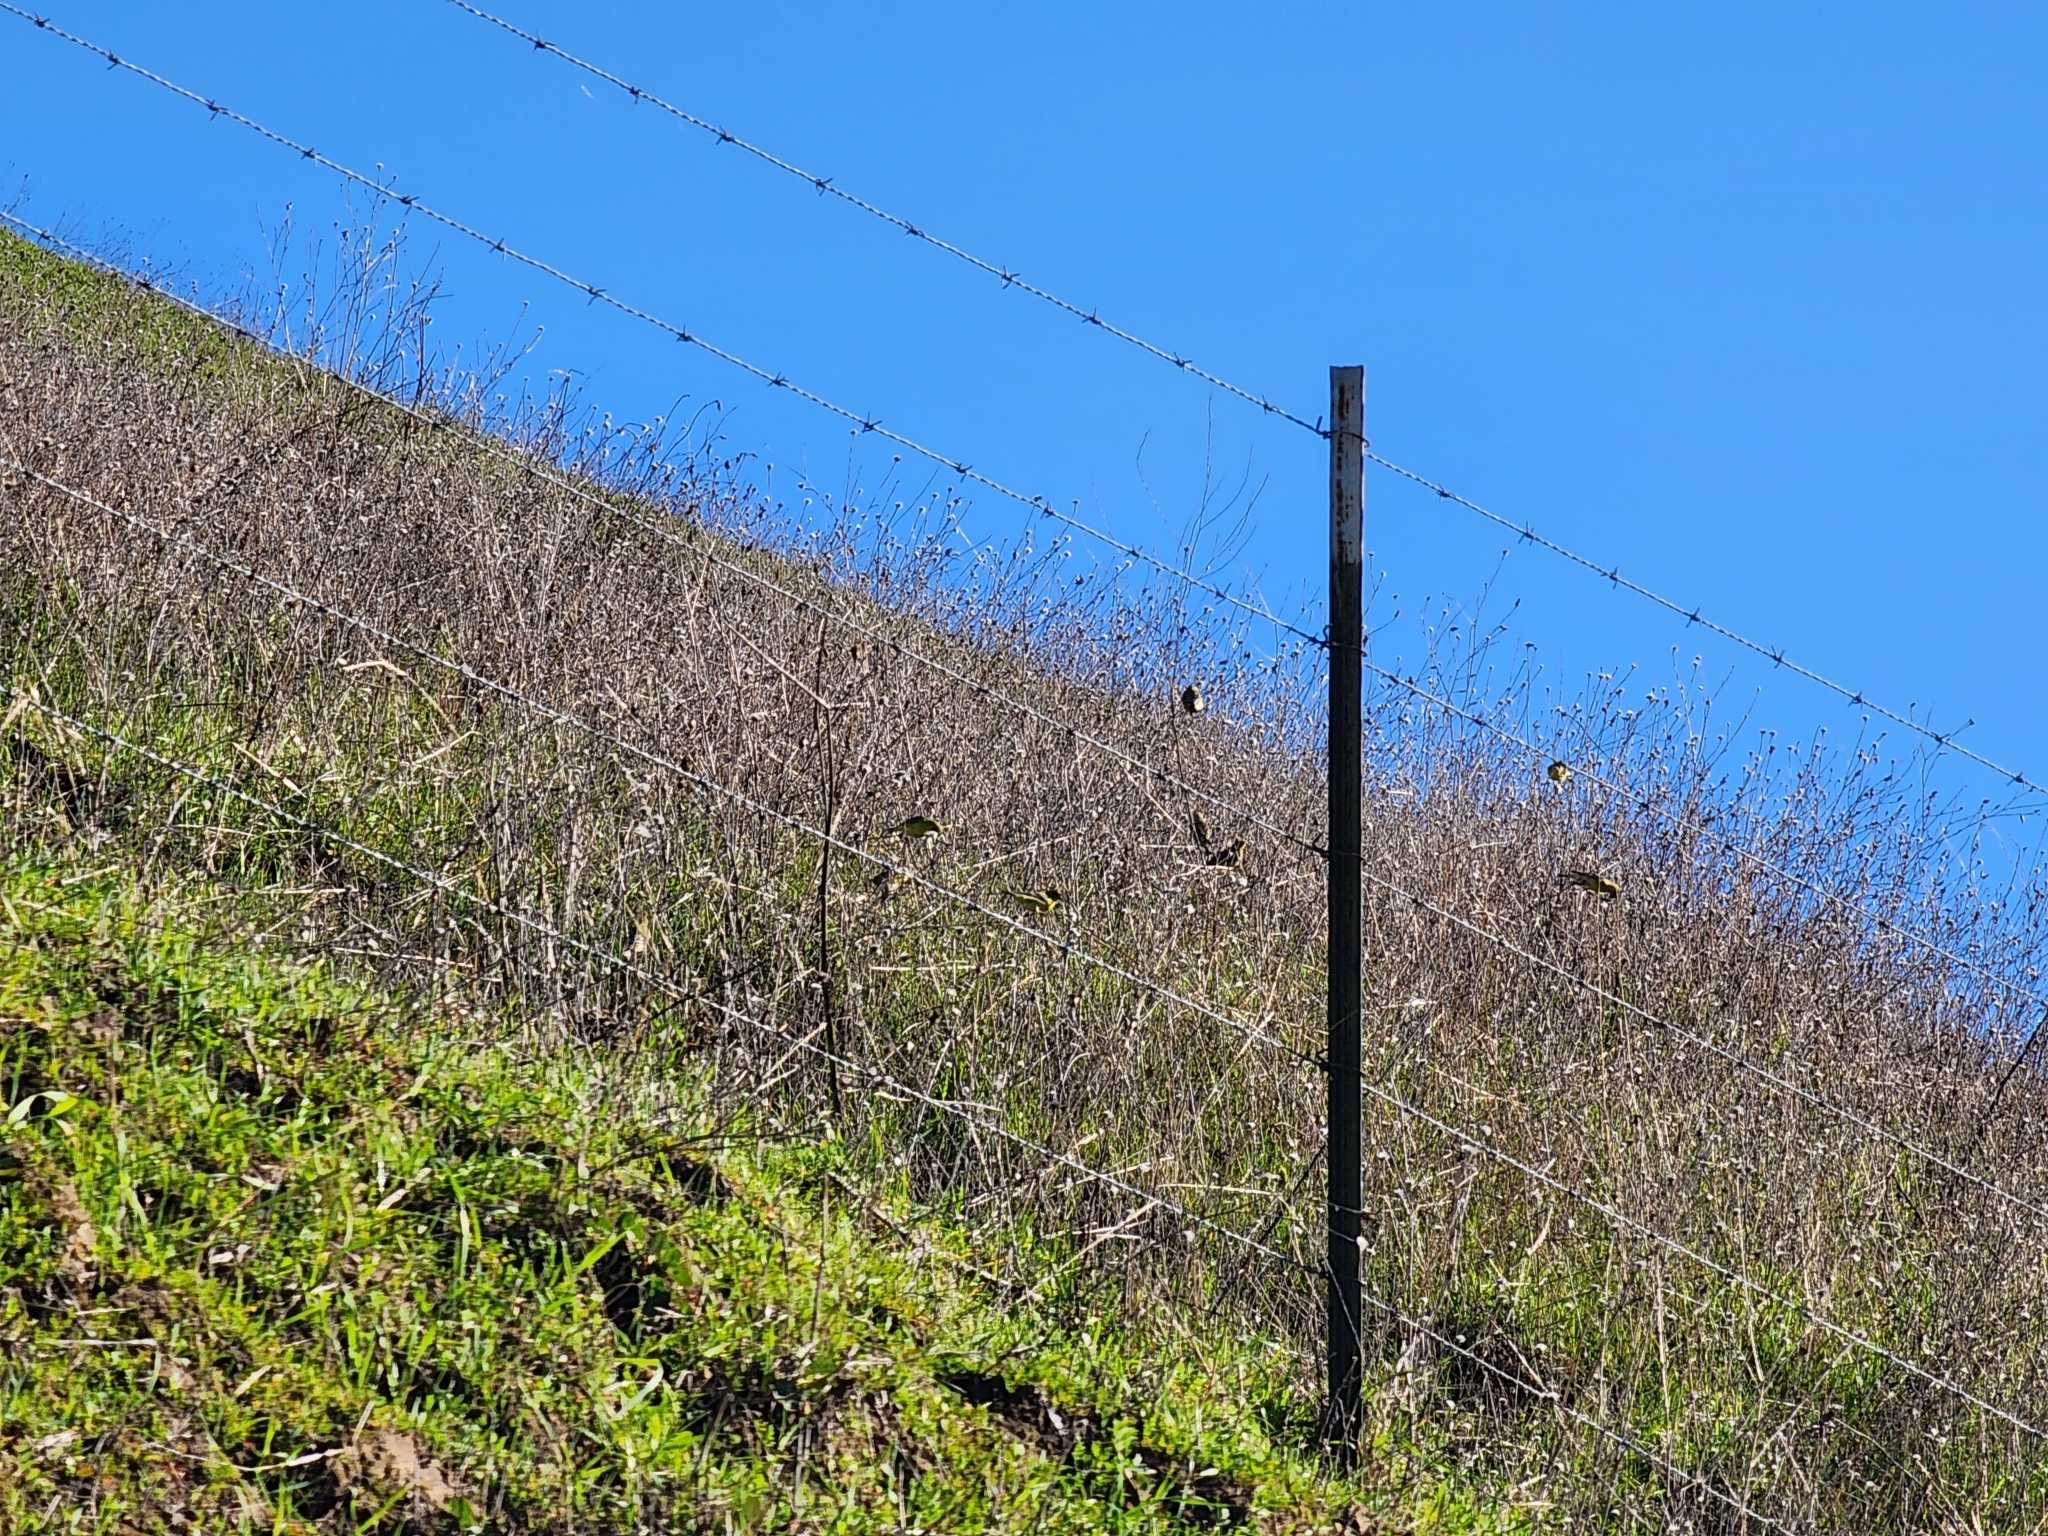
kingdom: Animalia
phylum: Chordata
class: Aves
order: Passeriformes
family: Fringillidae
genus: Spinus
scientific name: Spinus psaltria
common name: Lesser goldfinch
